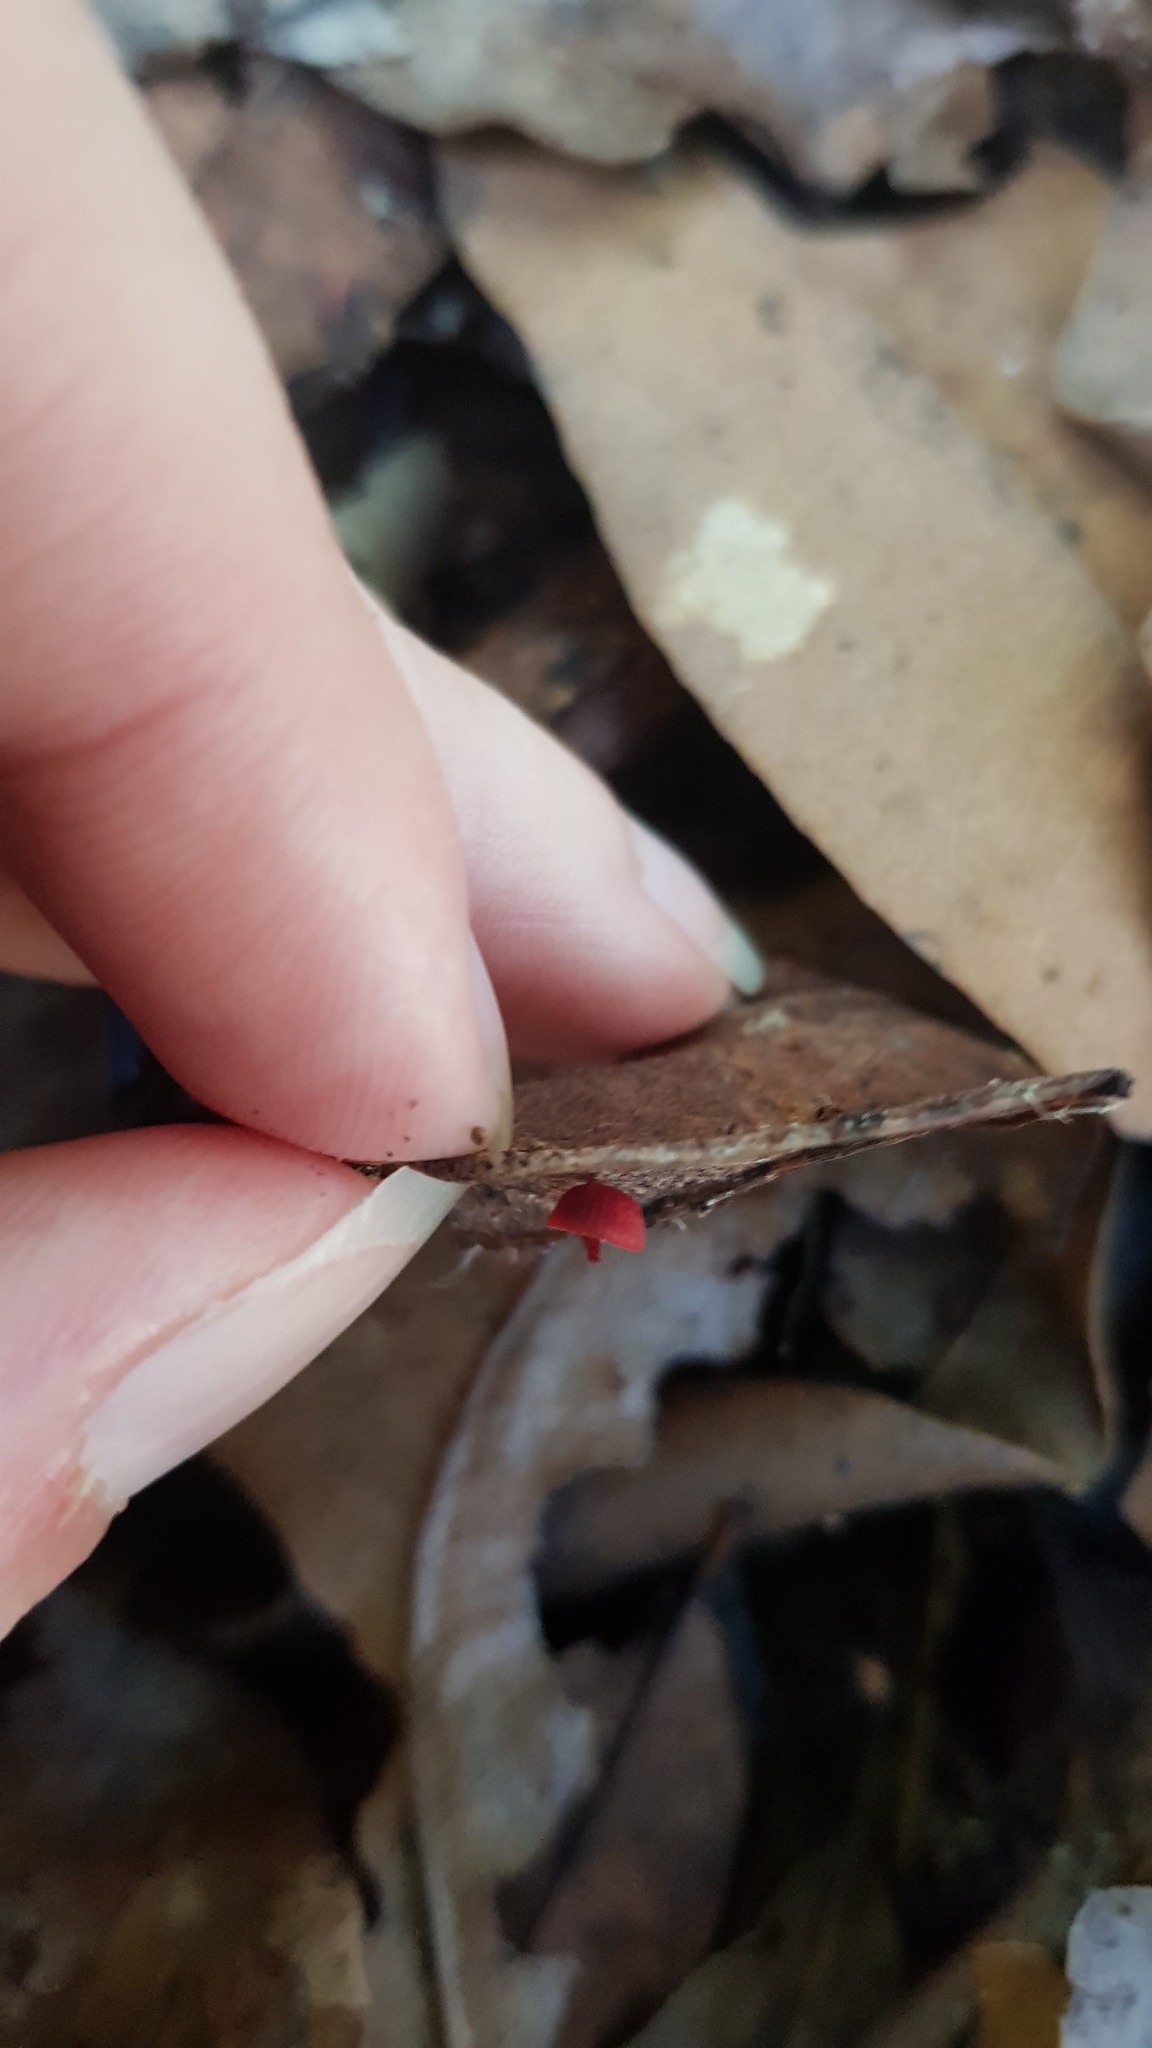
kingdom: Fungi
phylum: Basidiomycota
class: Agaricomycetes
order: Agaricales
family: Mycenaceae
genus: Cruentomycena
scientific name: Cruentomycena viscidocruenta
